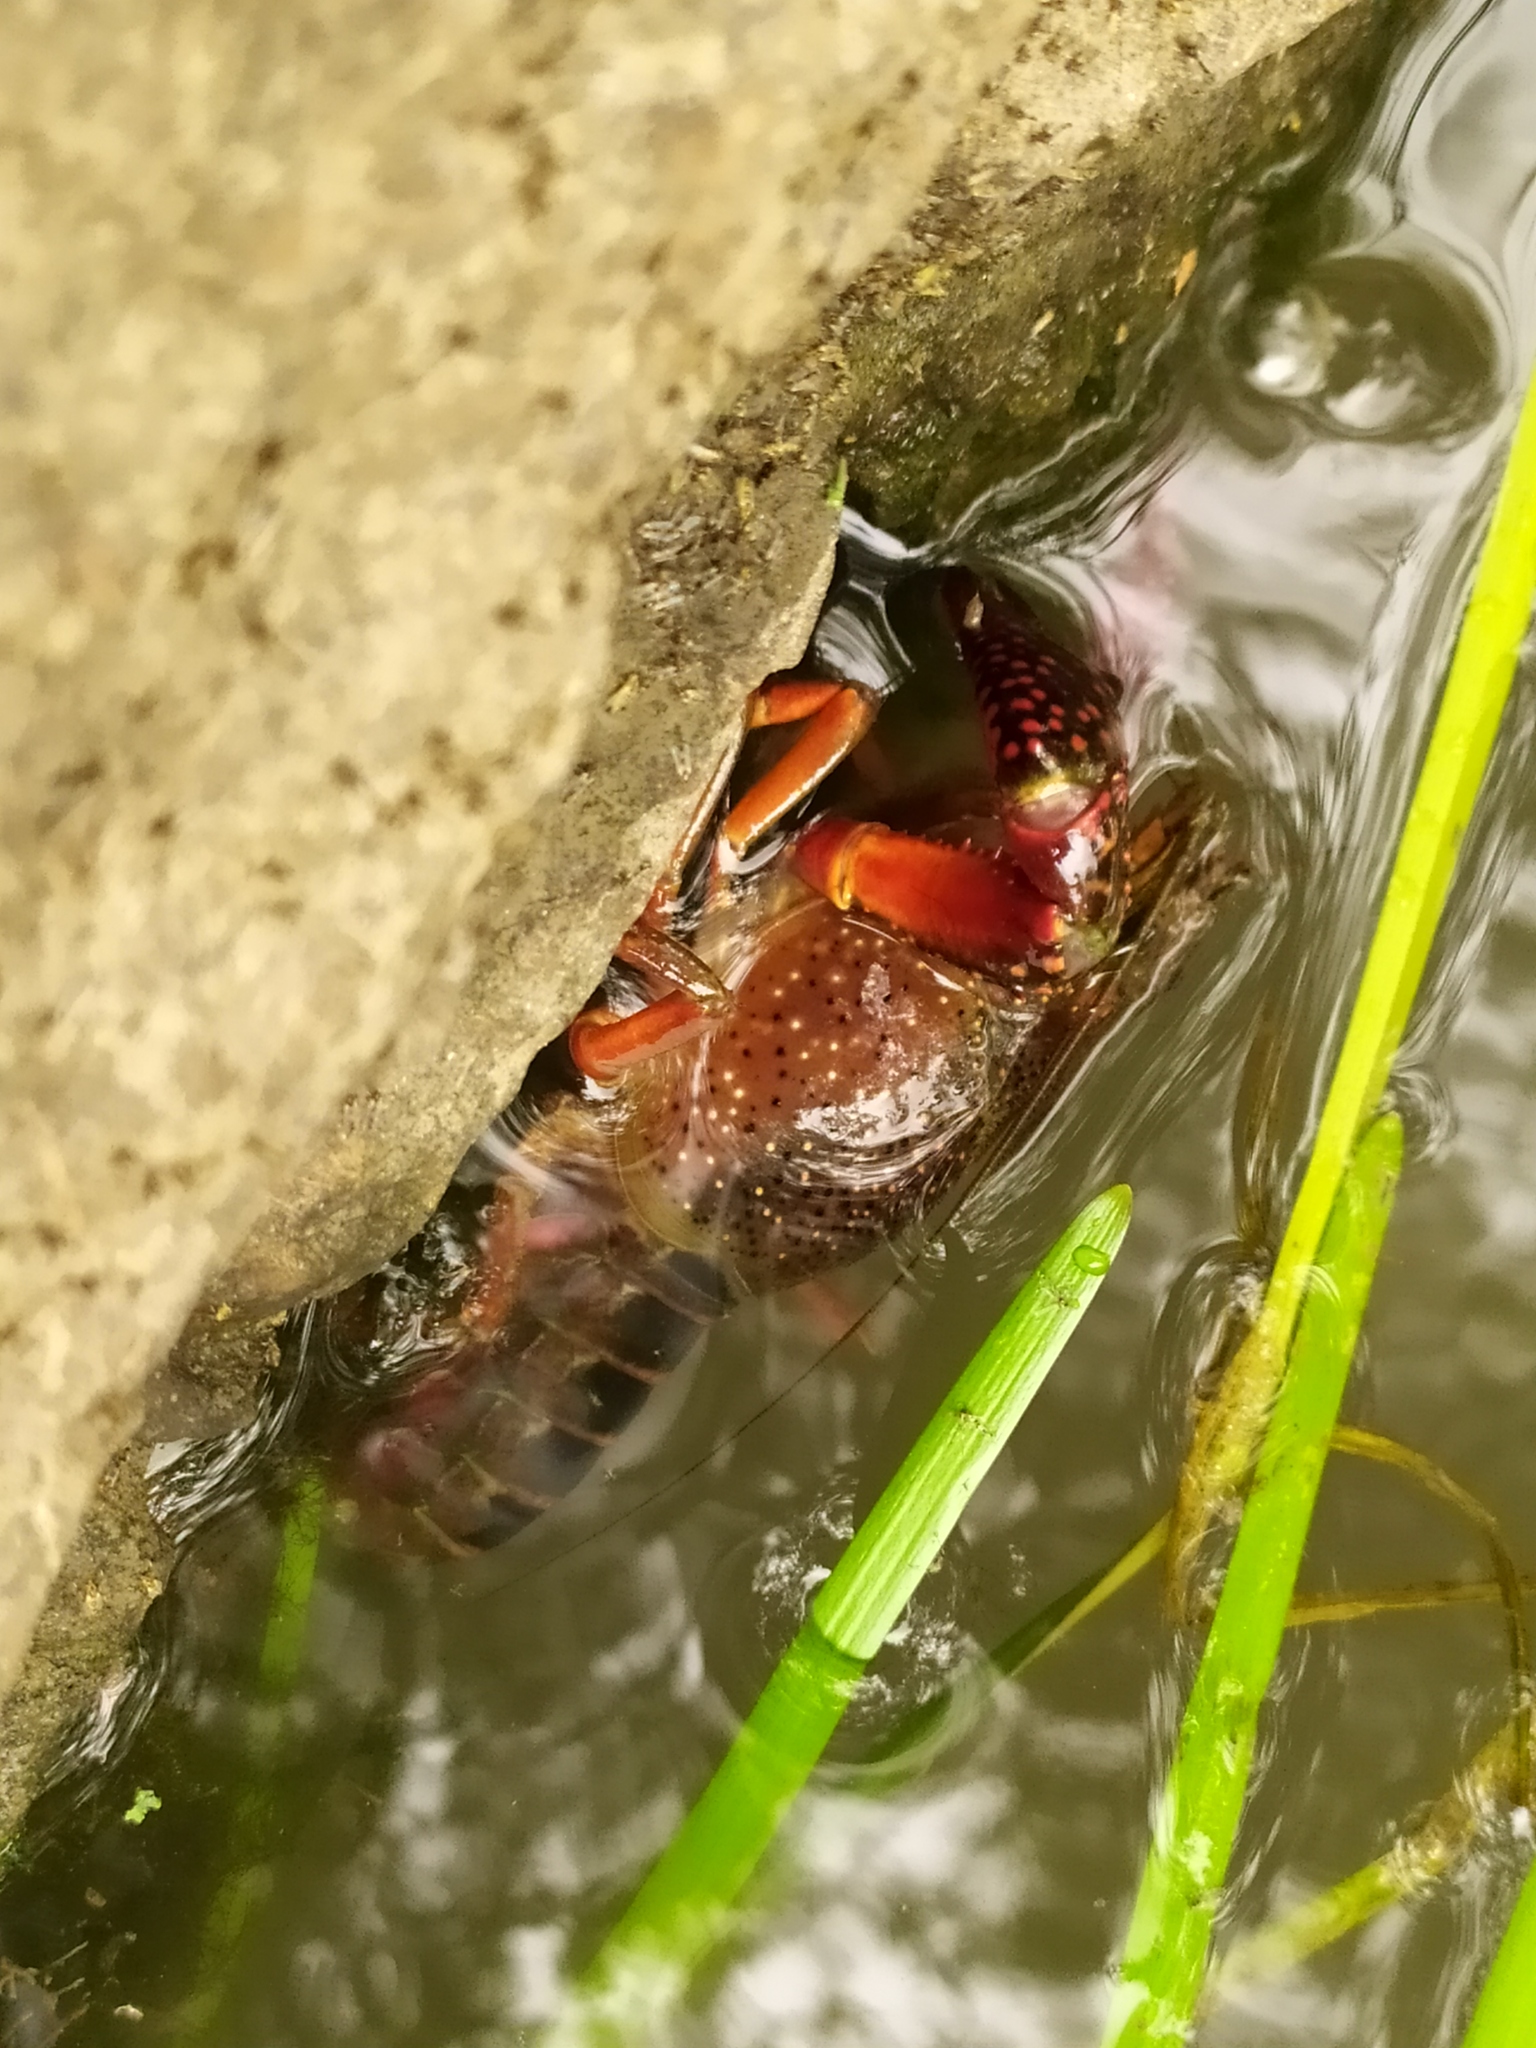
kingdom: Animalia
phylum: Arthropoda
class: Malacostraca
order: Decapoda
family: Cambaridae
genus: Procambarus
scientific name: Procambarus clarkii
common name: Red swamp crayfish
